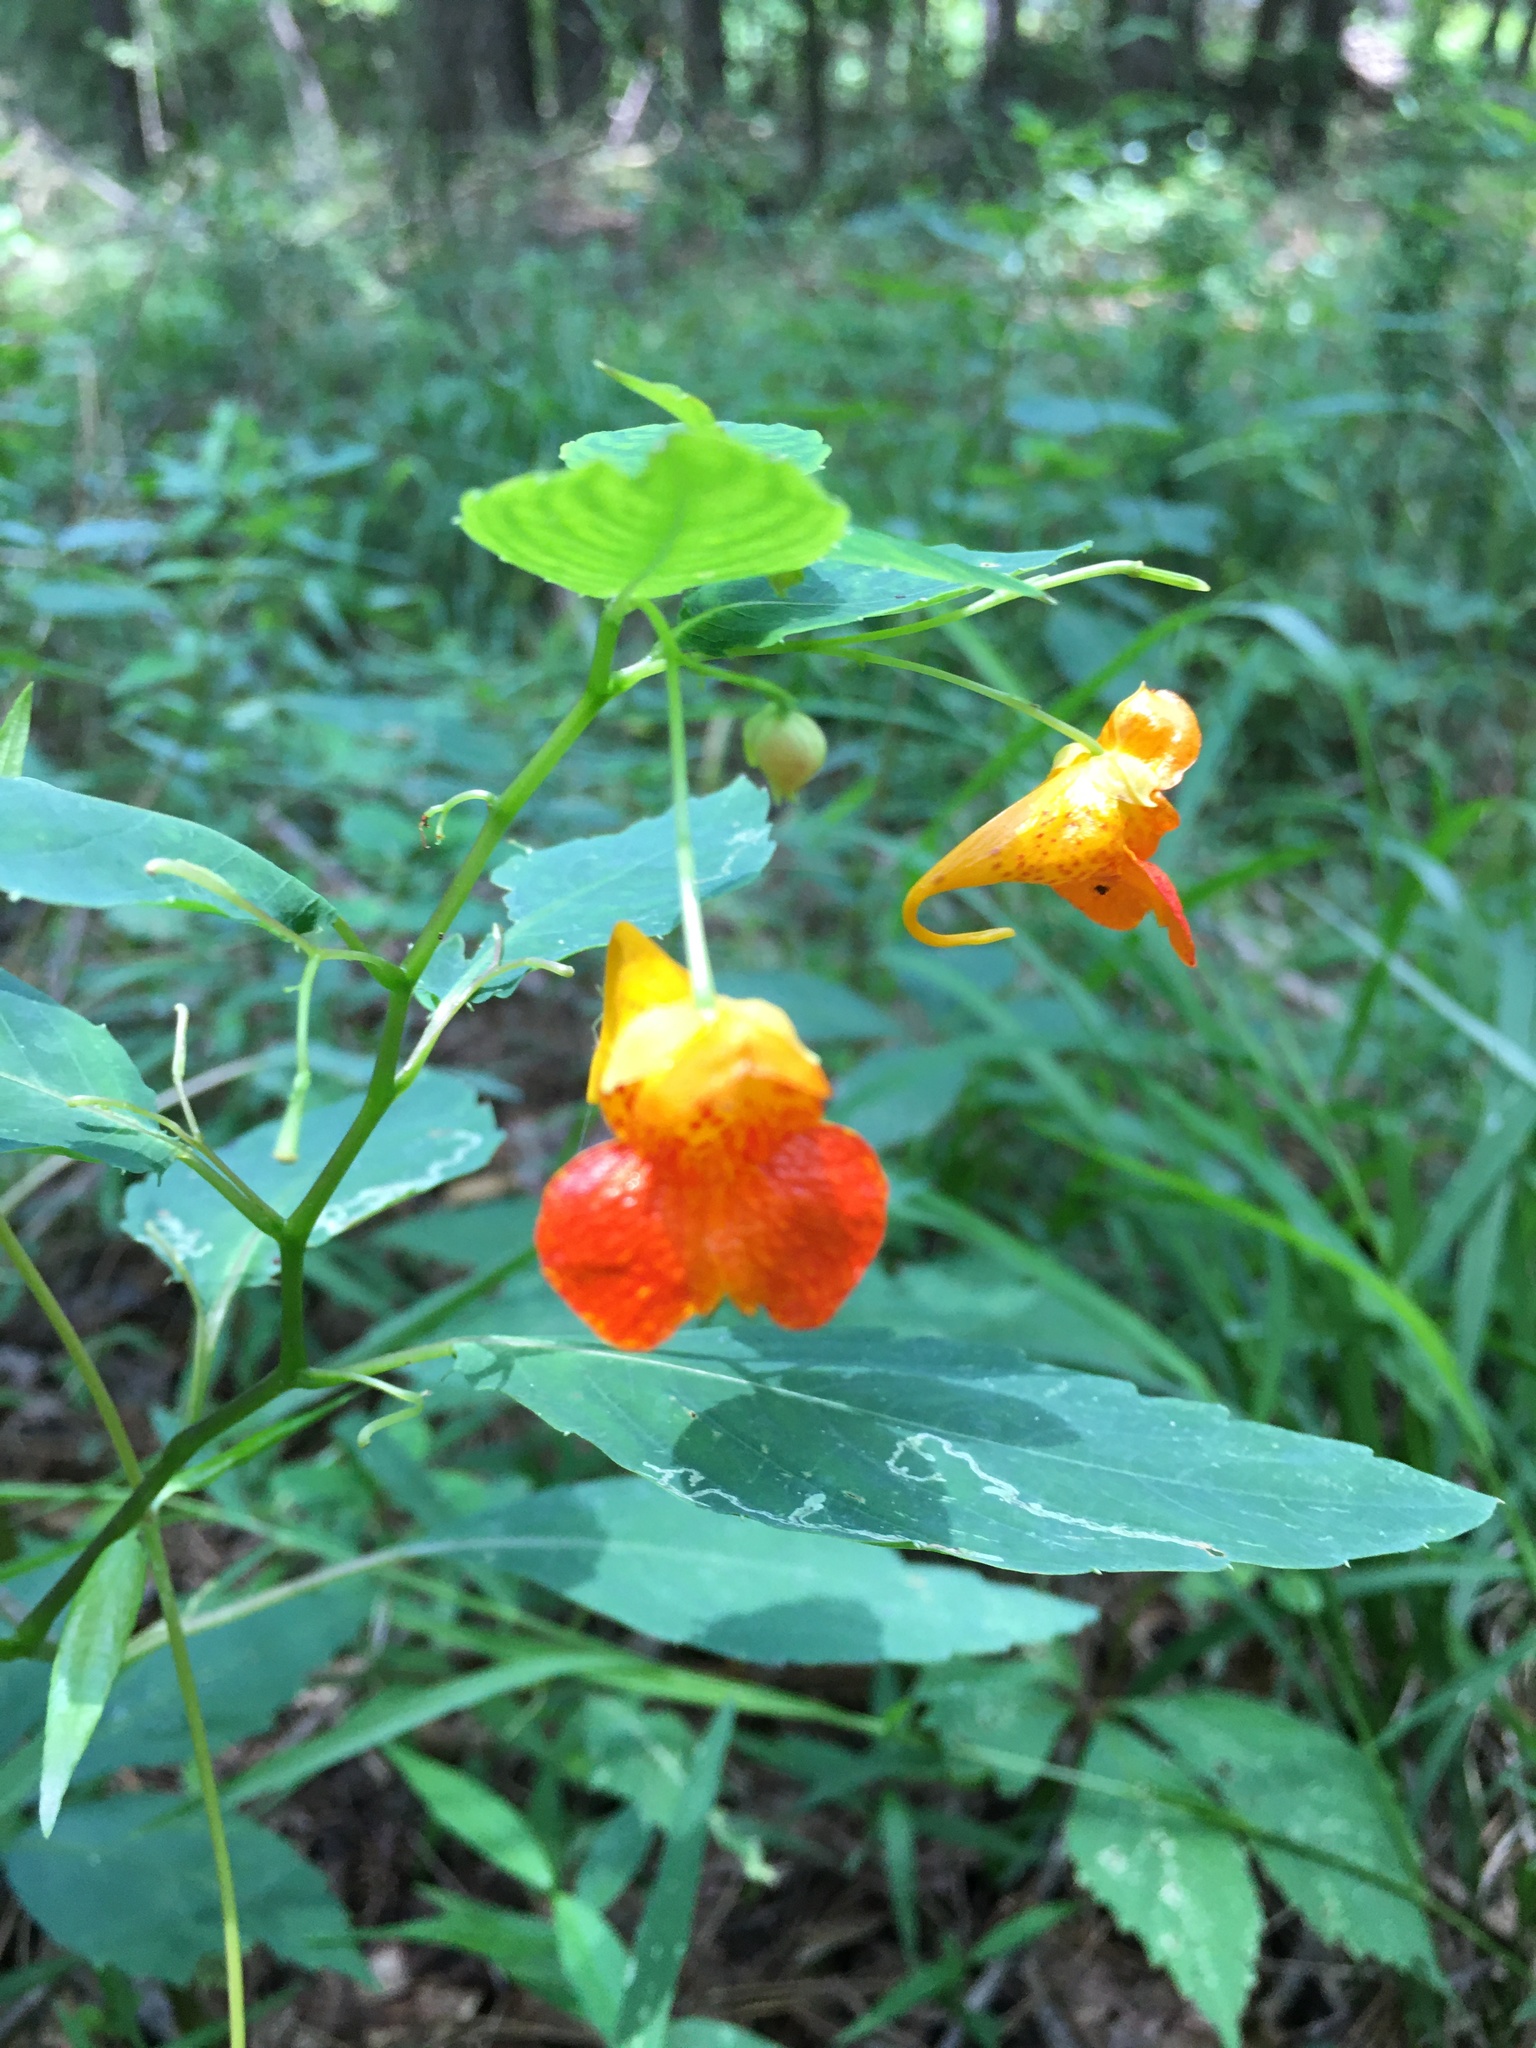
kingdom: Plantae
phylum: Tracheophyta
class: Magnoliopsida
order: Ericales
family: Balsaminaceae
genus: Impatiens
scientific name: Impatiens capensis
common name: Orange balsam
